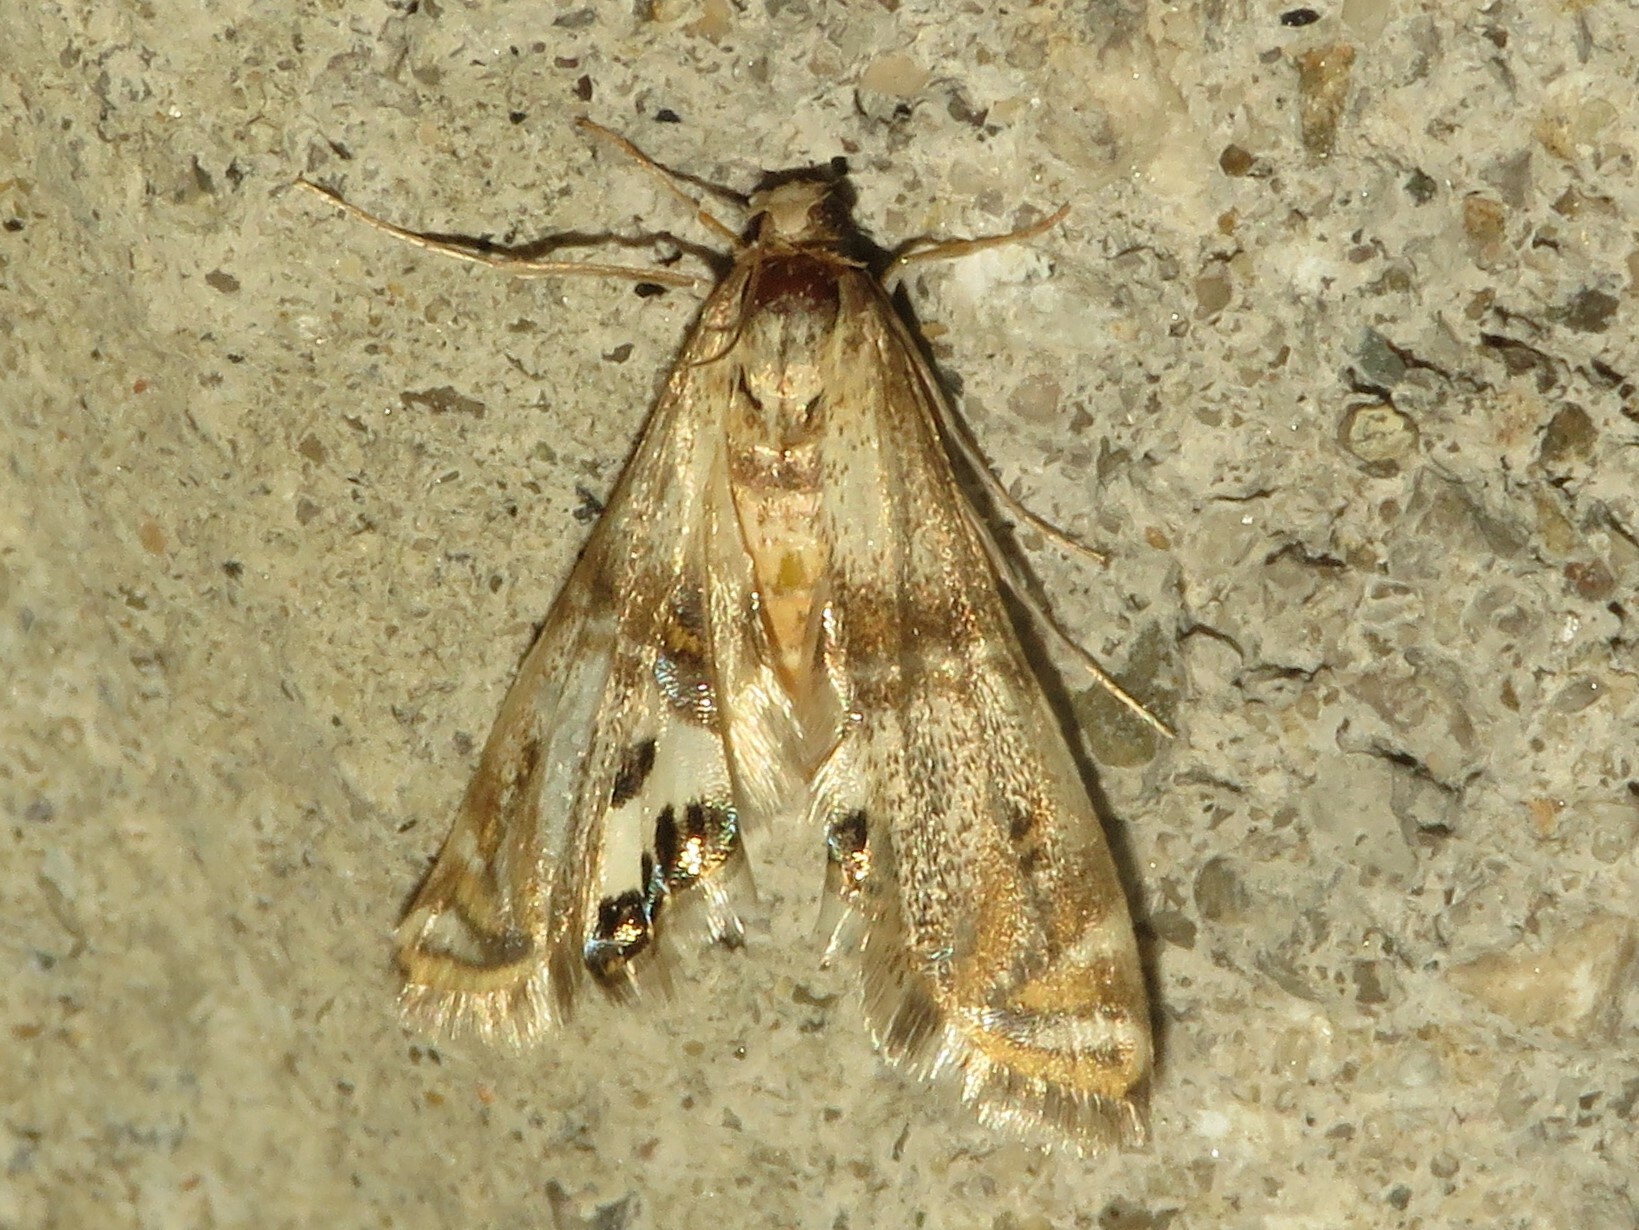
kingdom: Animalia
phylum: Arthropoda
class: Insecta
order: Lepidoptera
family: Crambidae
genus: Petrophila
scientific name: Petrophila bifascialis
